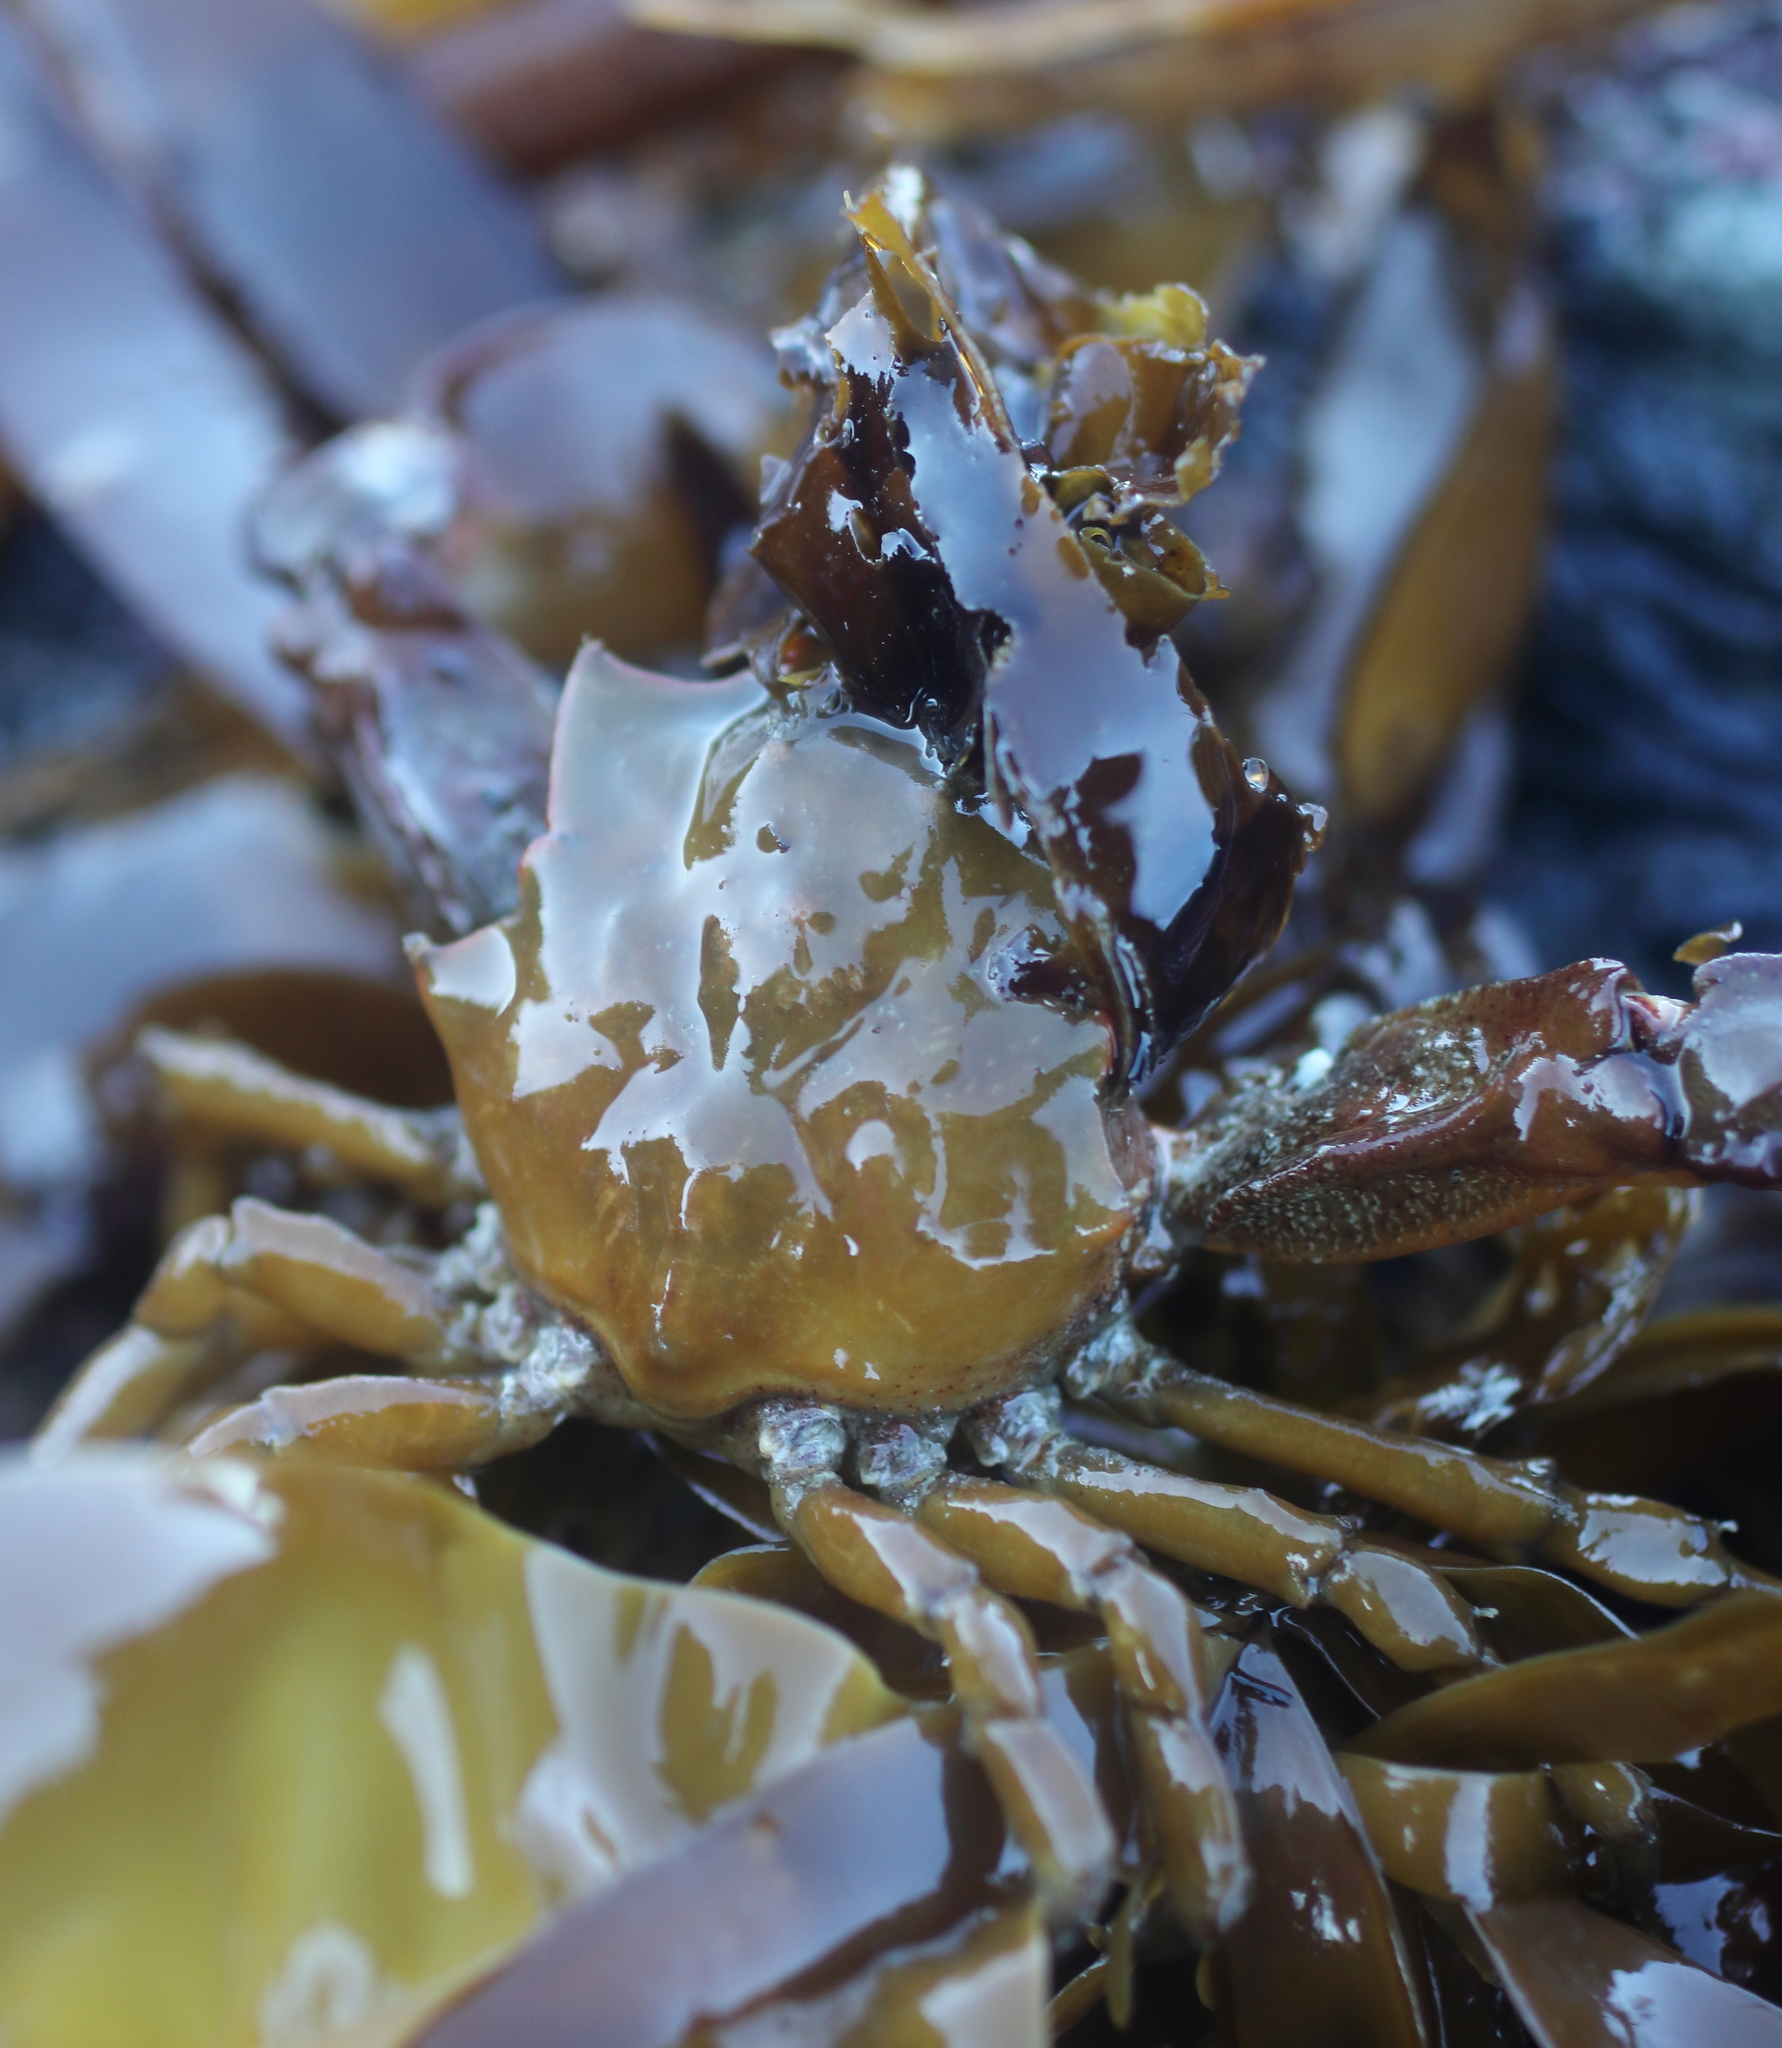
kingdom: Animalia
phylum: Arthropoda
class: Malacostraca
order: Decapoda
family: Epialtidae
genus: Pugettia
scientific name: Pugettia gracilis
